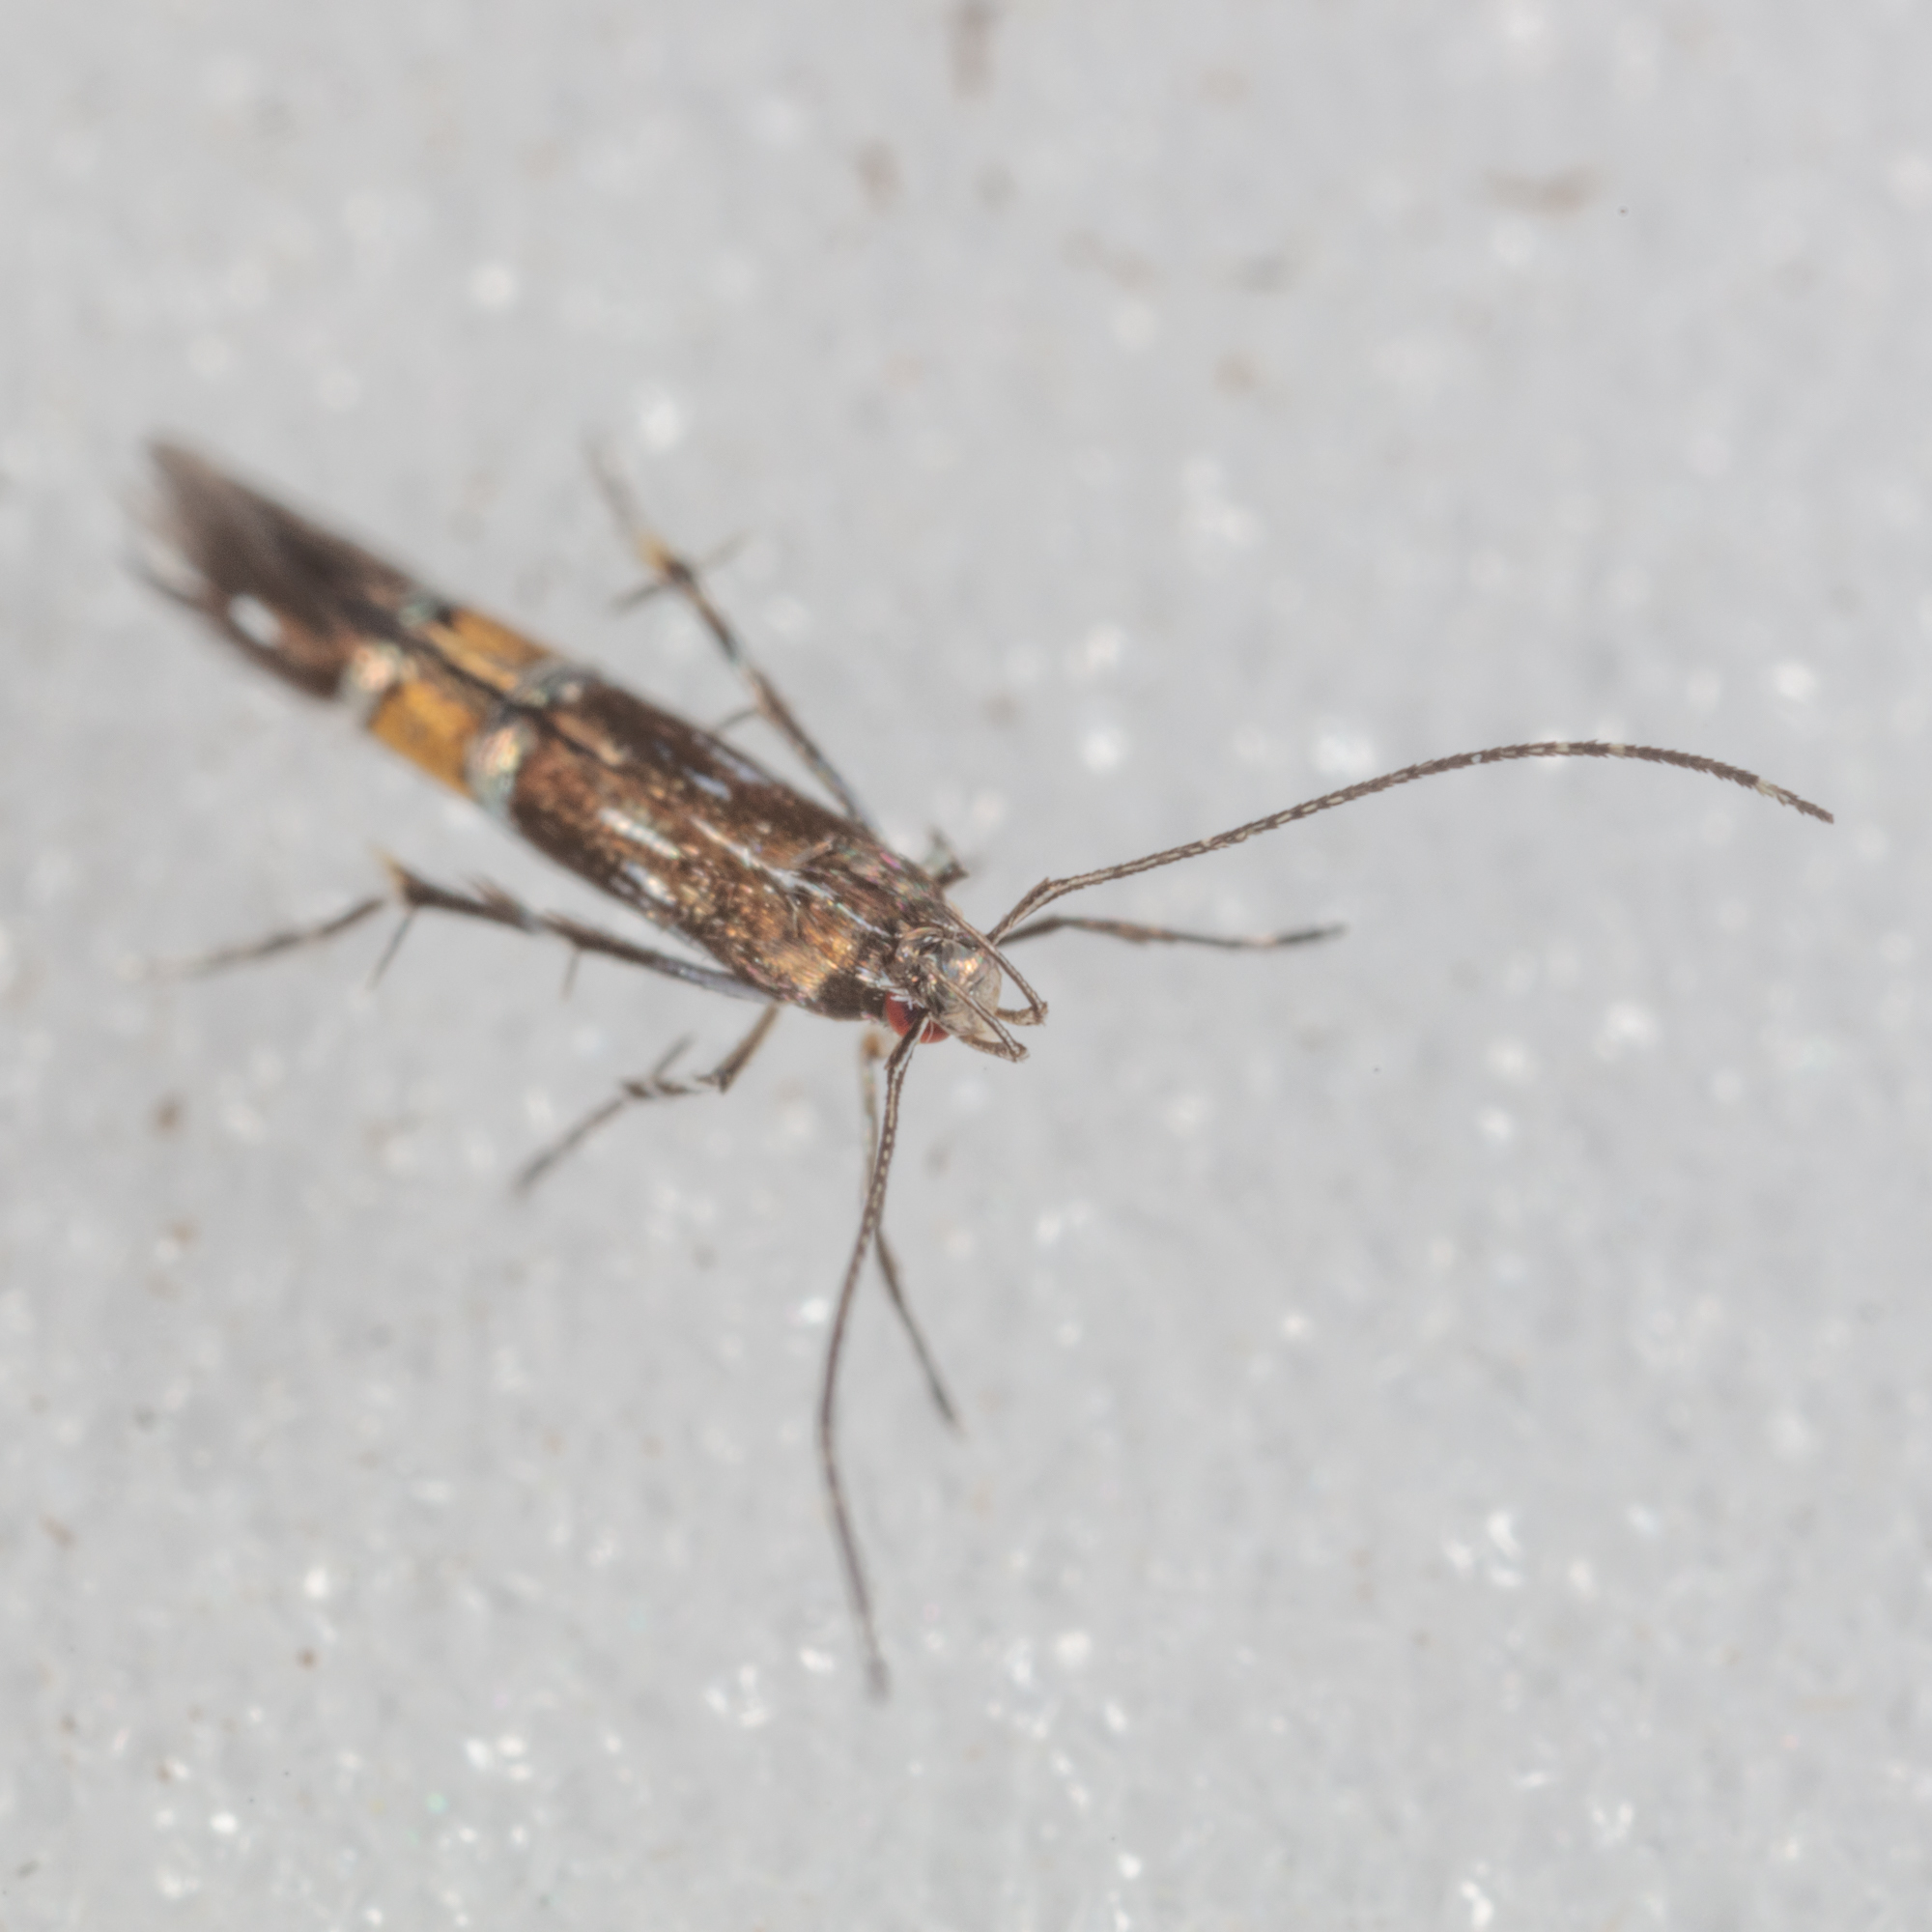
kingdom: Animalia
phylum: Arthropoda
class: Insecta
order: Lepidoptera
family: Cosmopterigidae
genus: Cosmopterix
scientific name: Cosmopterix pulchrimella
